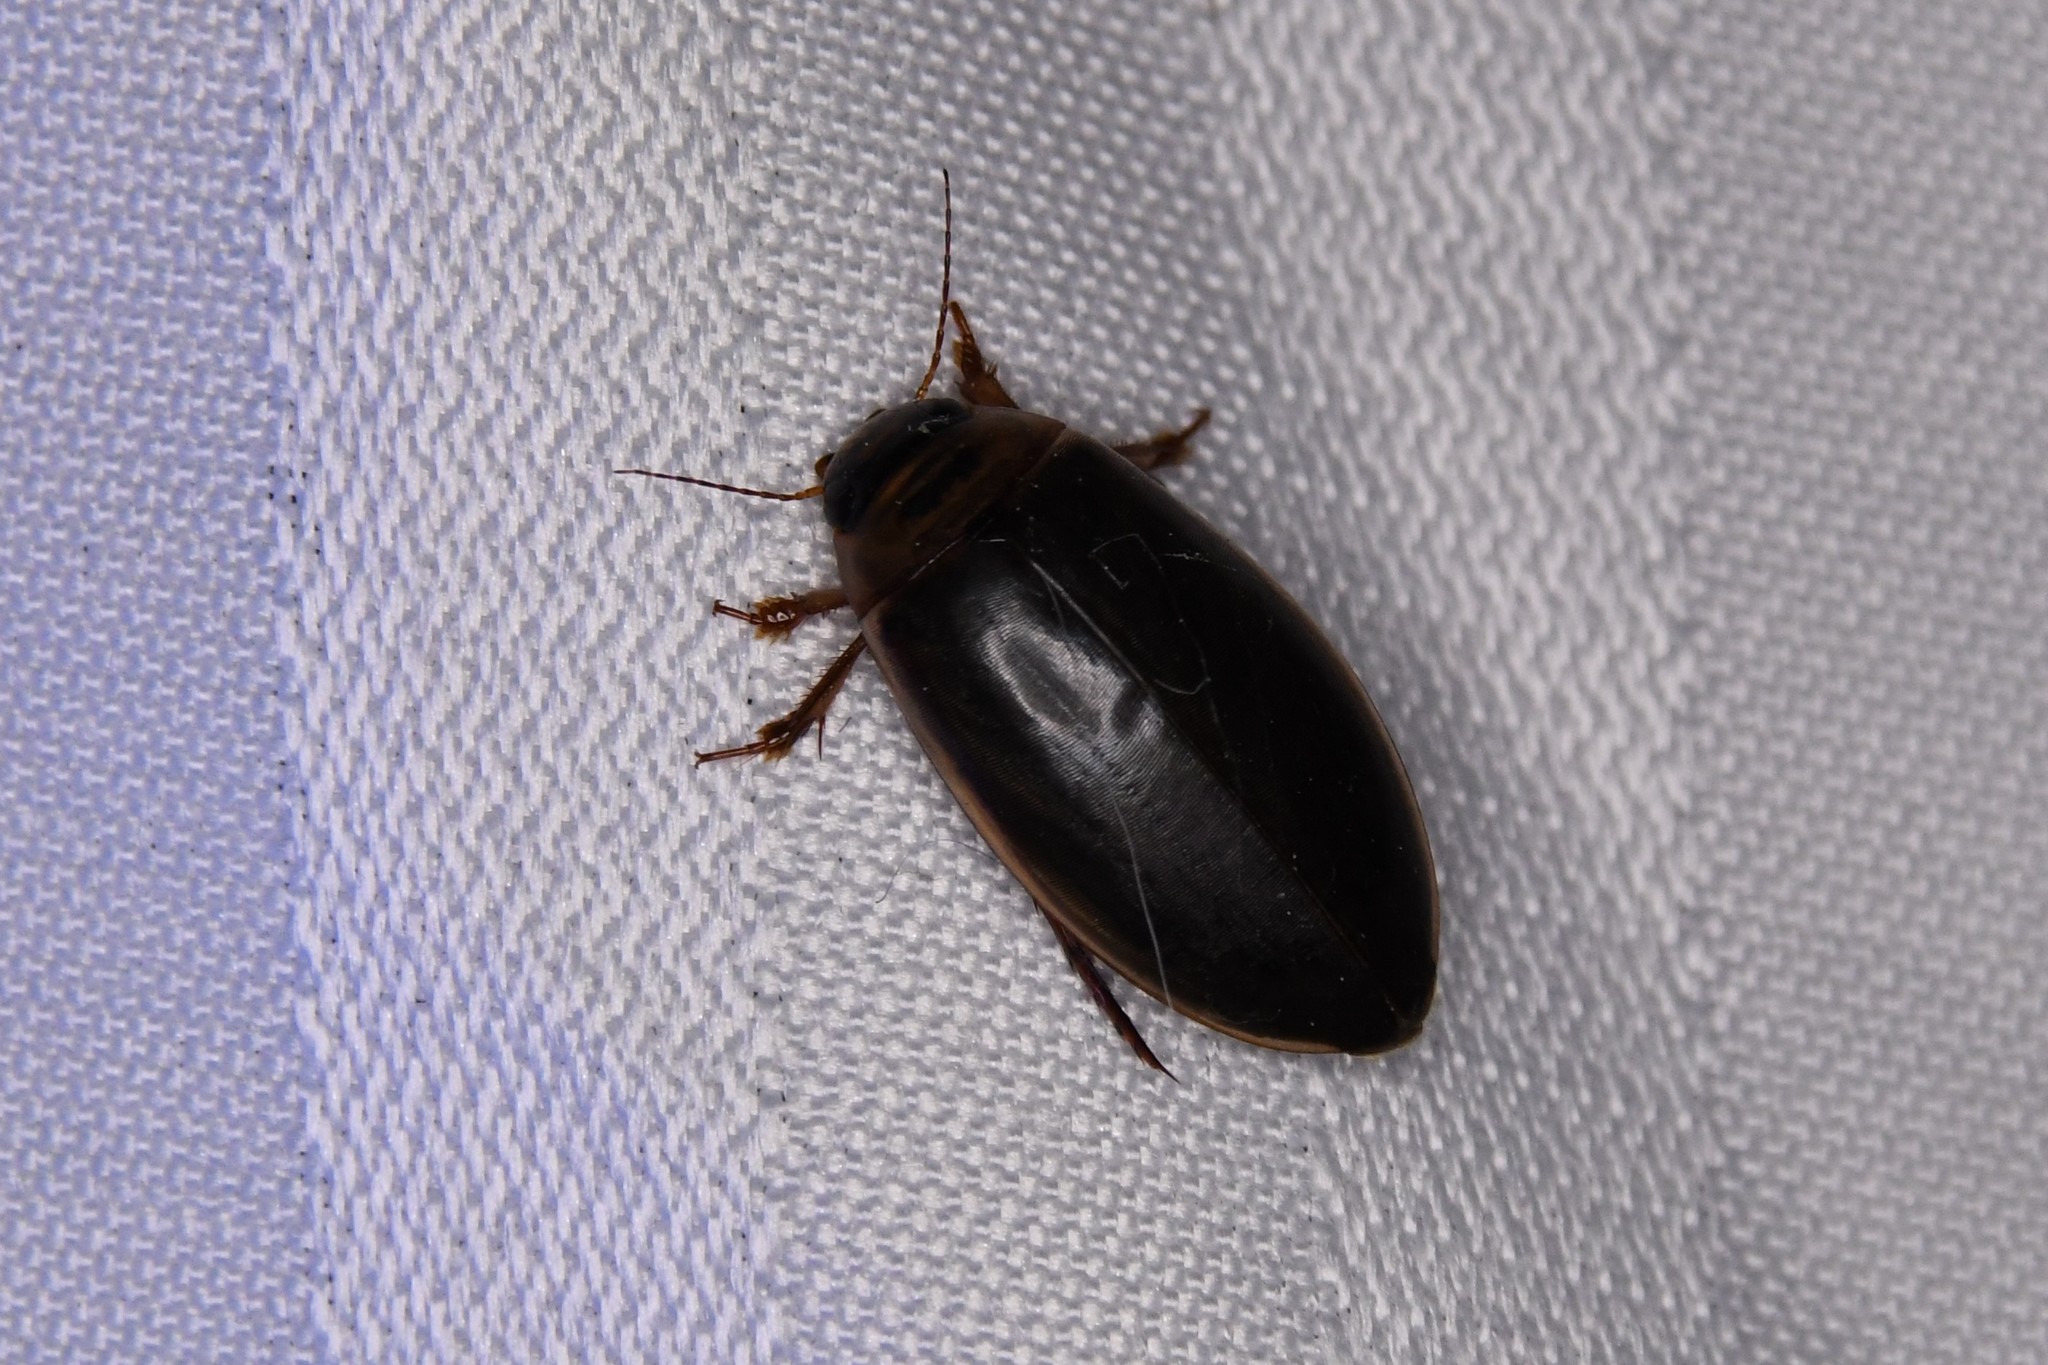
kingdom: Animalia
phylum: Arthropoda
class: Insecta
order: Coleoptera
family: Dytiscidae
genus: Colymbetes
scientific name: Colymbetes sculptilis
